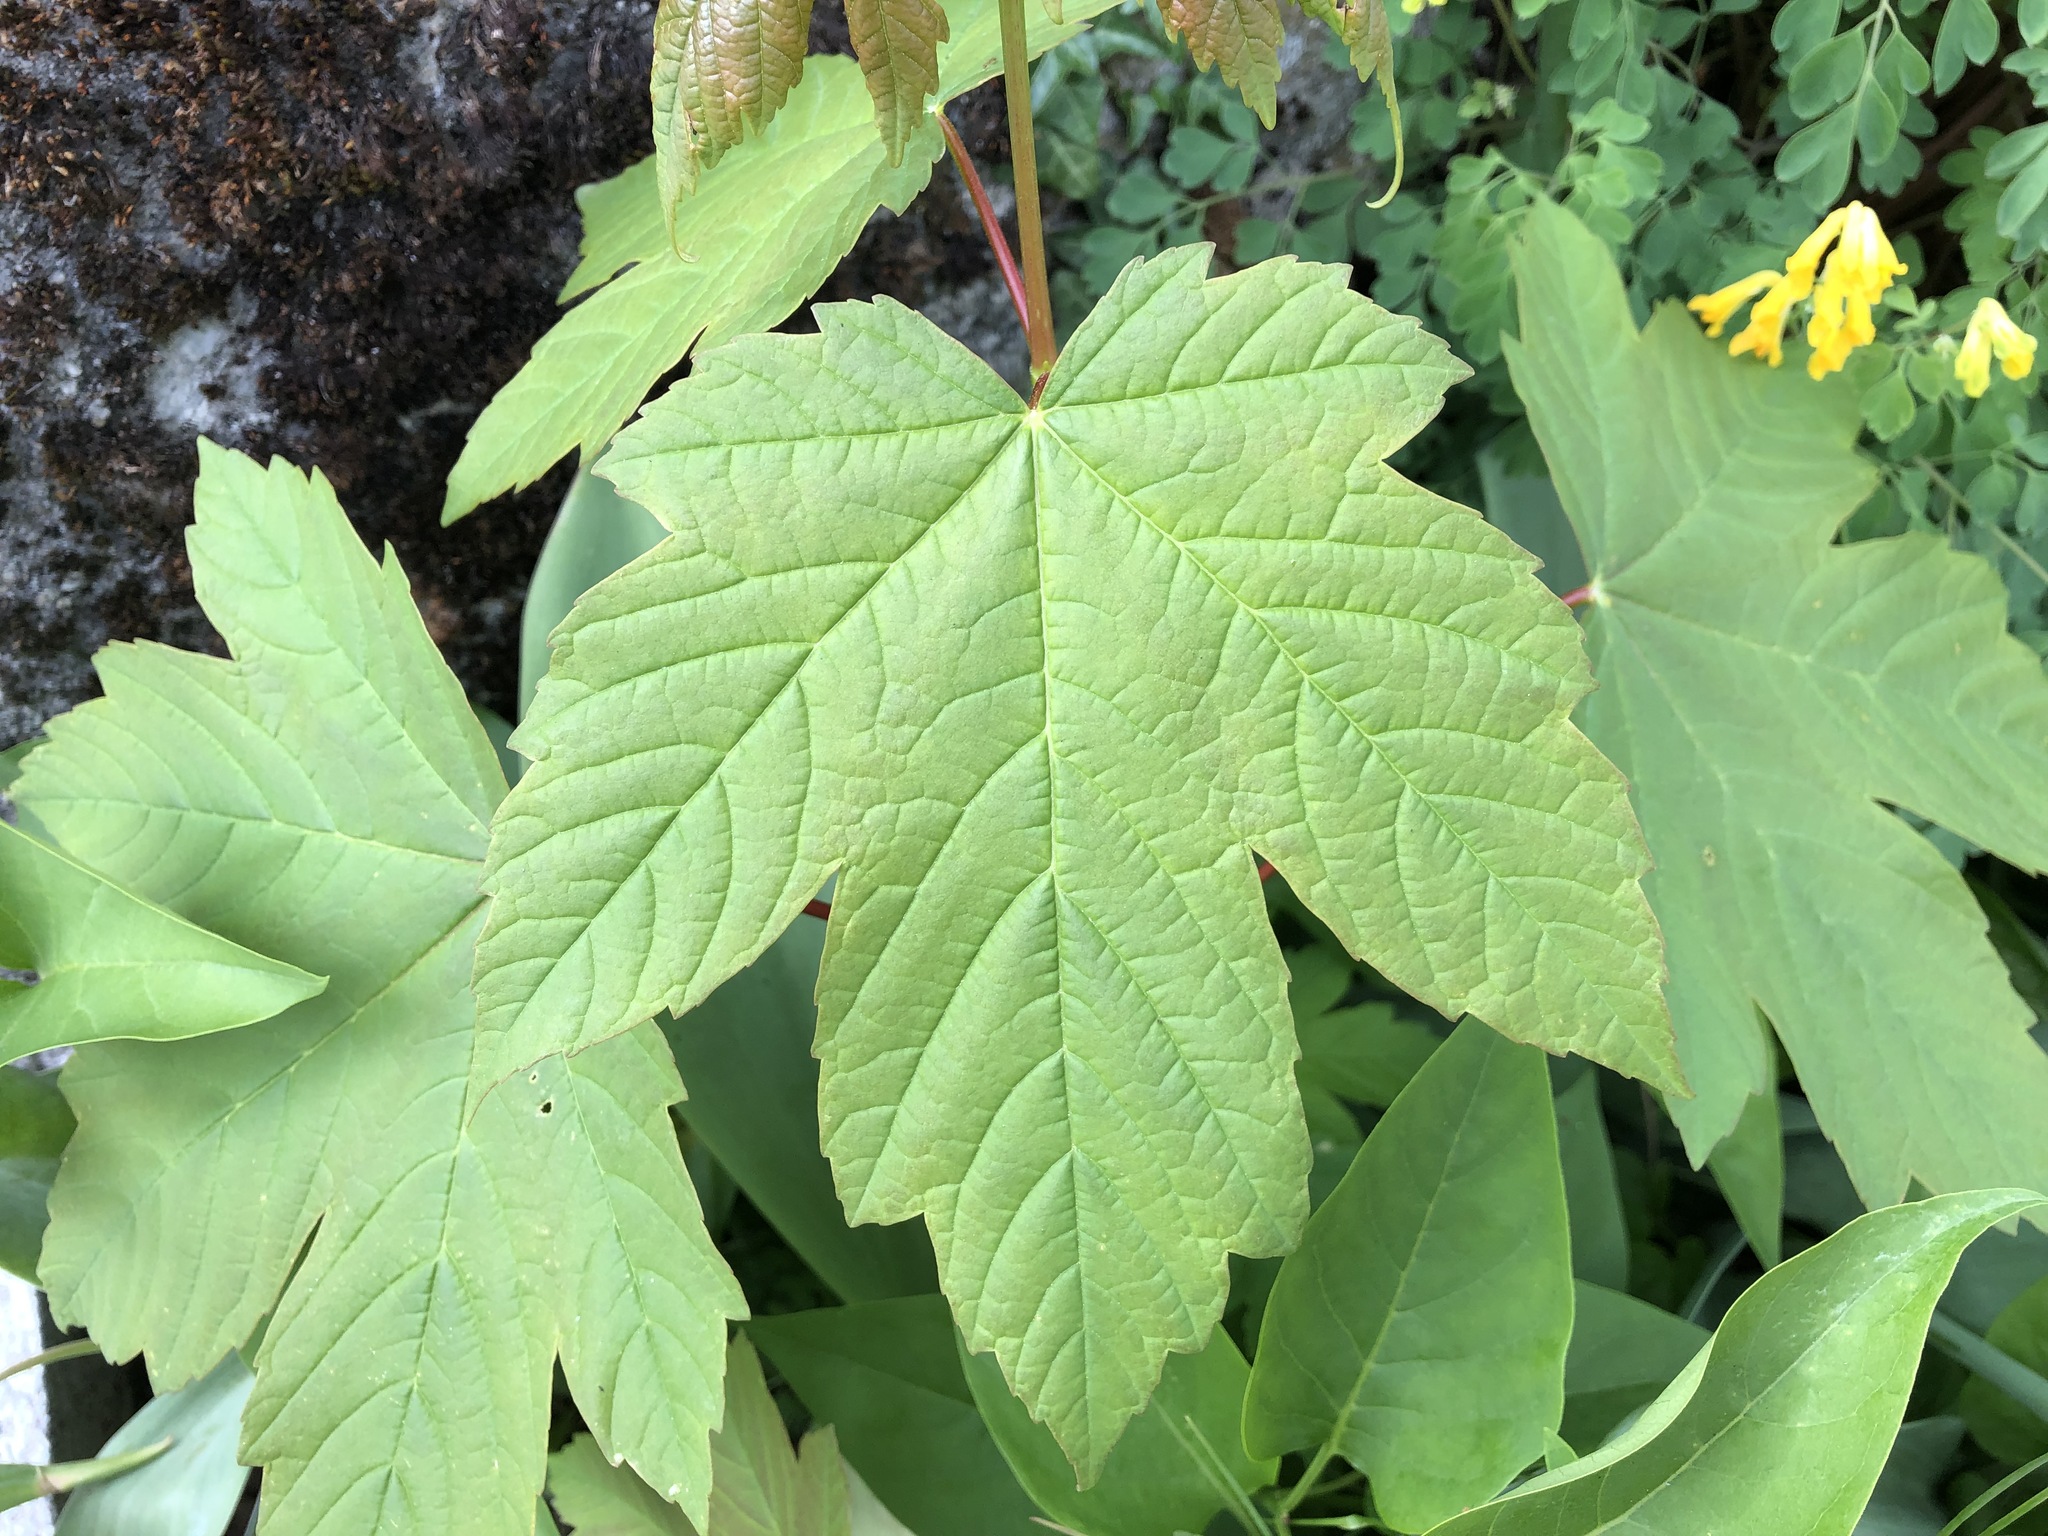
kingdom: Plantae
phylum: Tracheophyta
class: Magnoliopsida
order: Sapindales
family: Sapindaceae
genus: Acer
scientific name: Acer pseudoplatanus
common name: Sycamore
